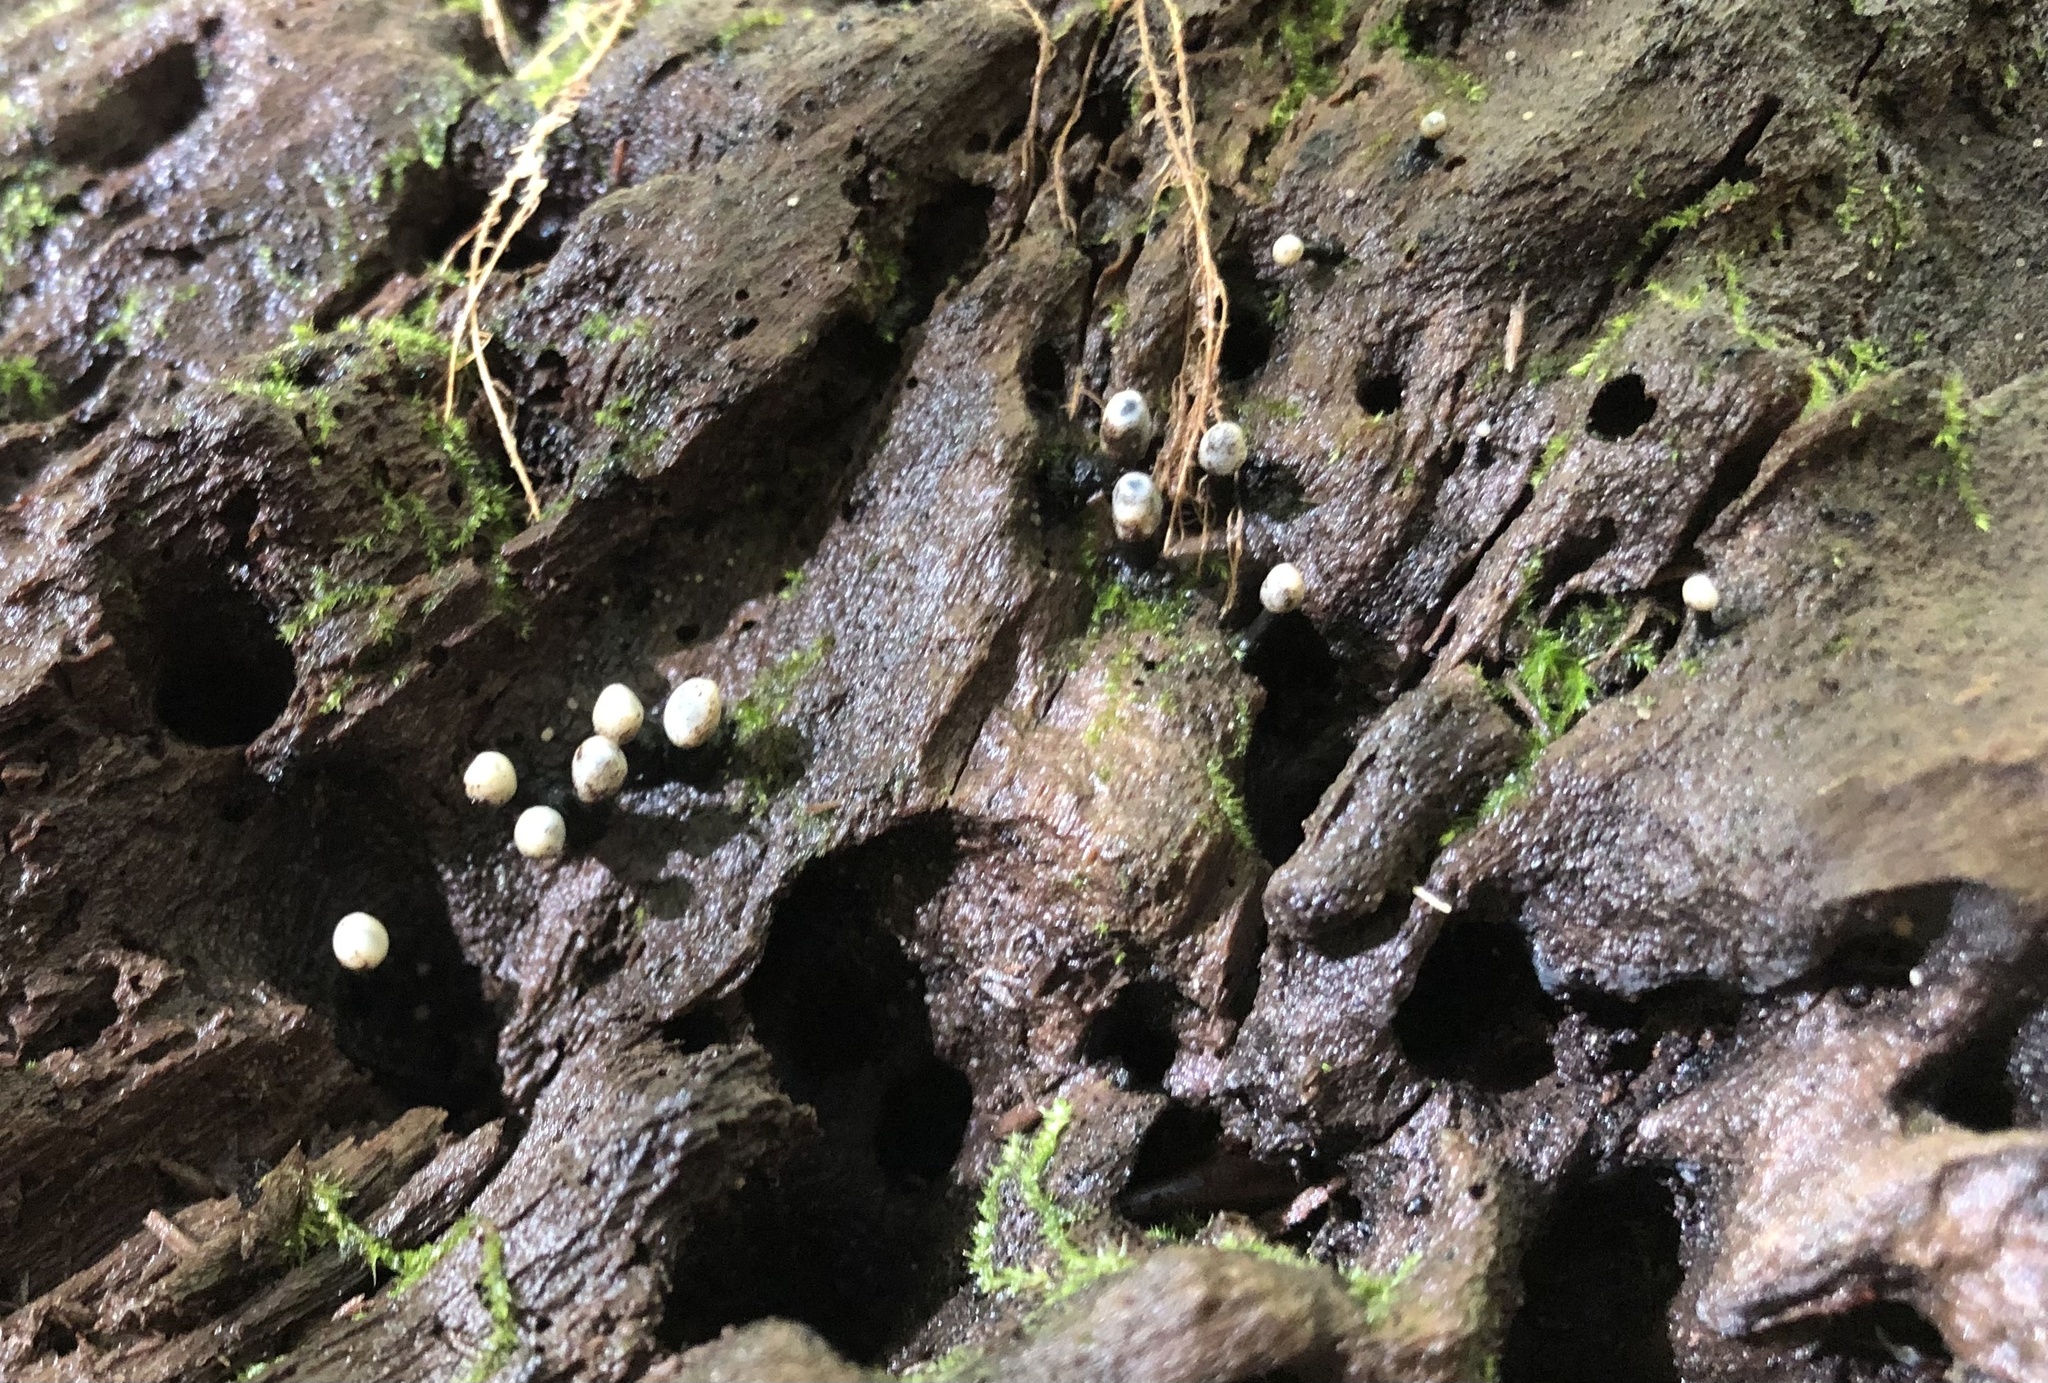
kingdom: Fungi
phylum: Ascomycota
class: Leotiomycetes
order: Helotiales
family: Bulgariaceae
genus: Holwaya
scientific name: Holwaya mucida
